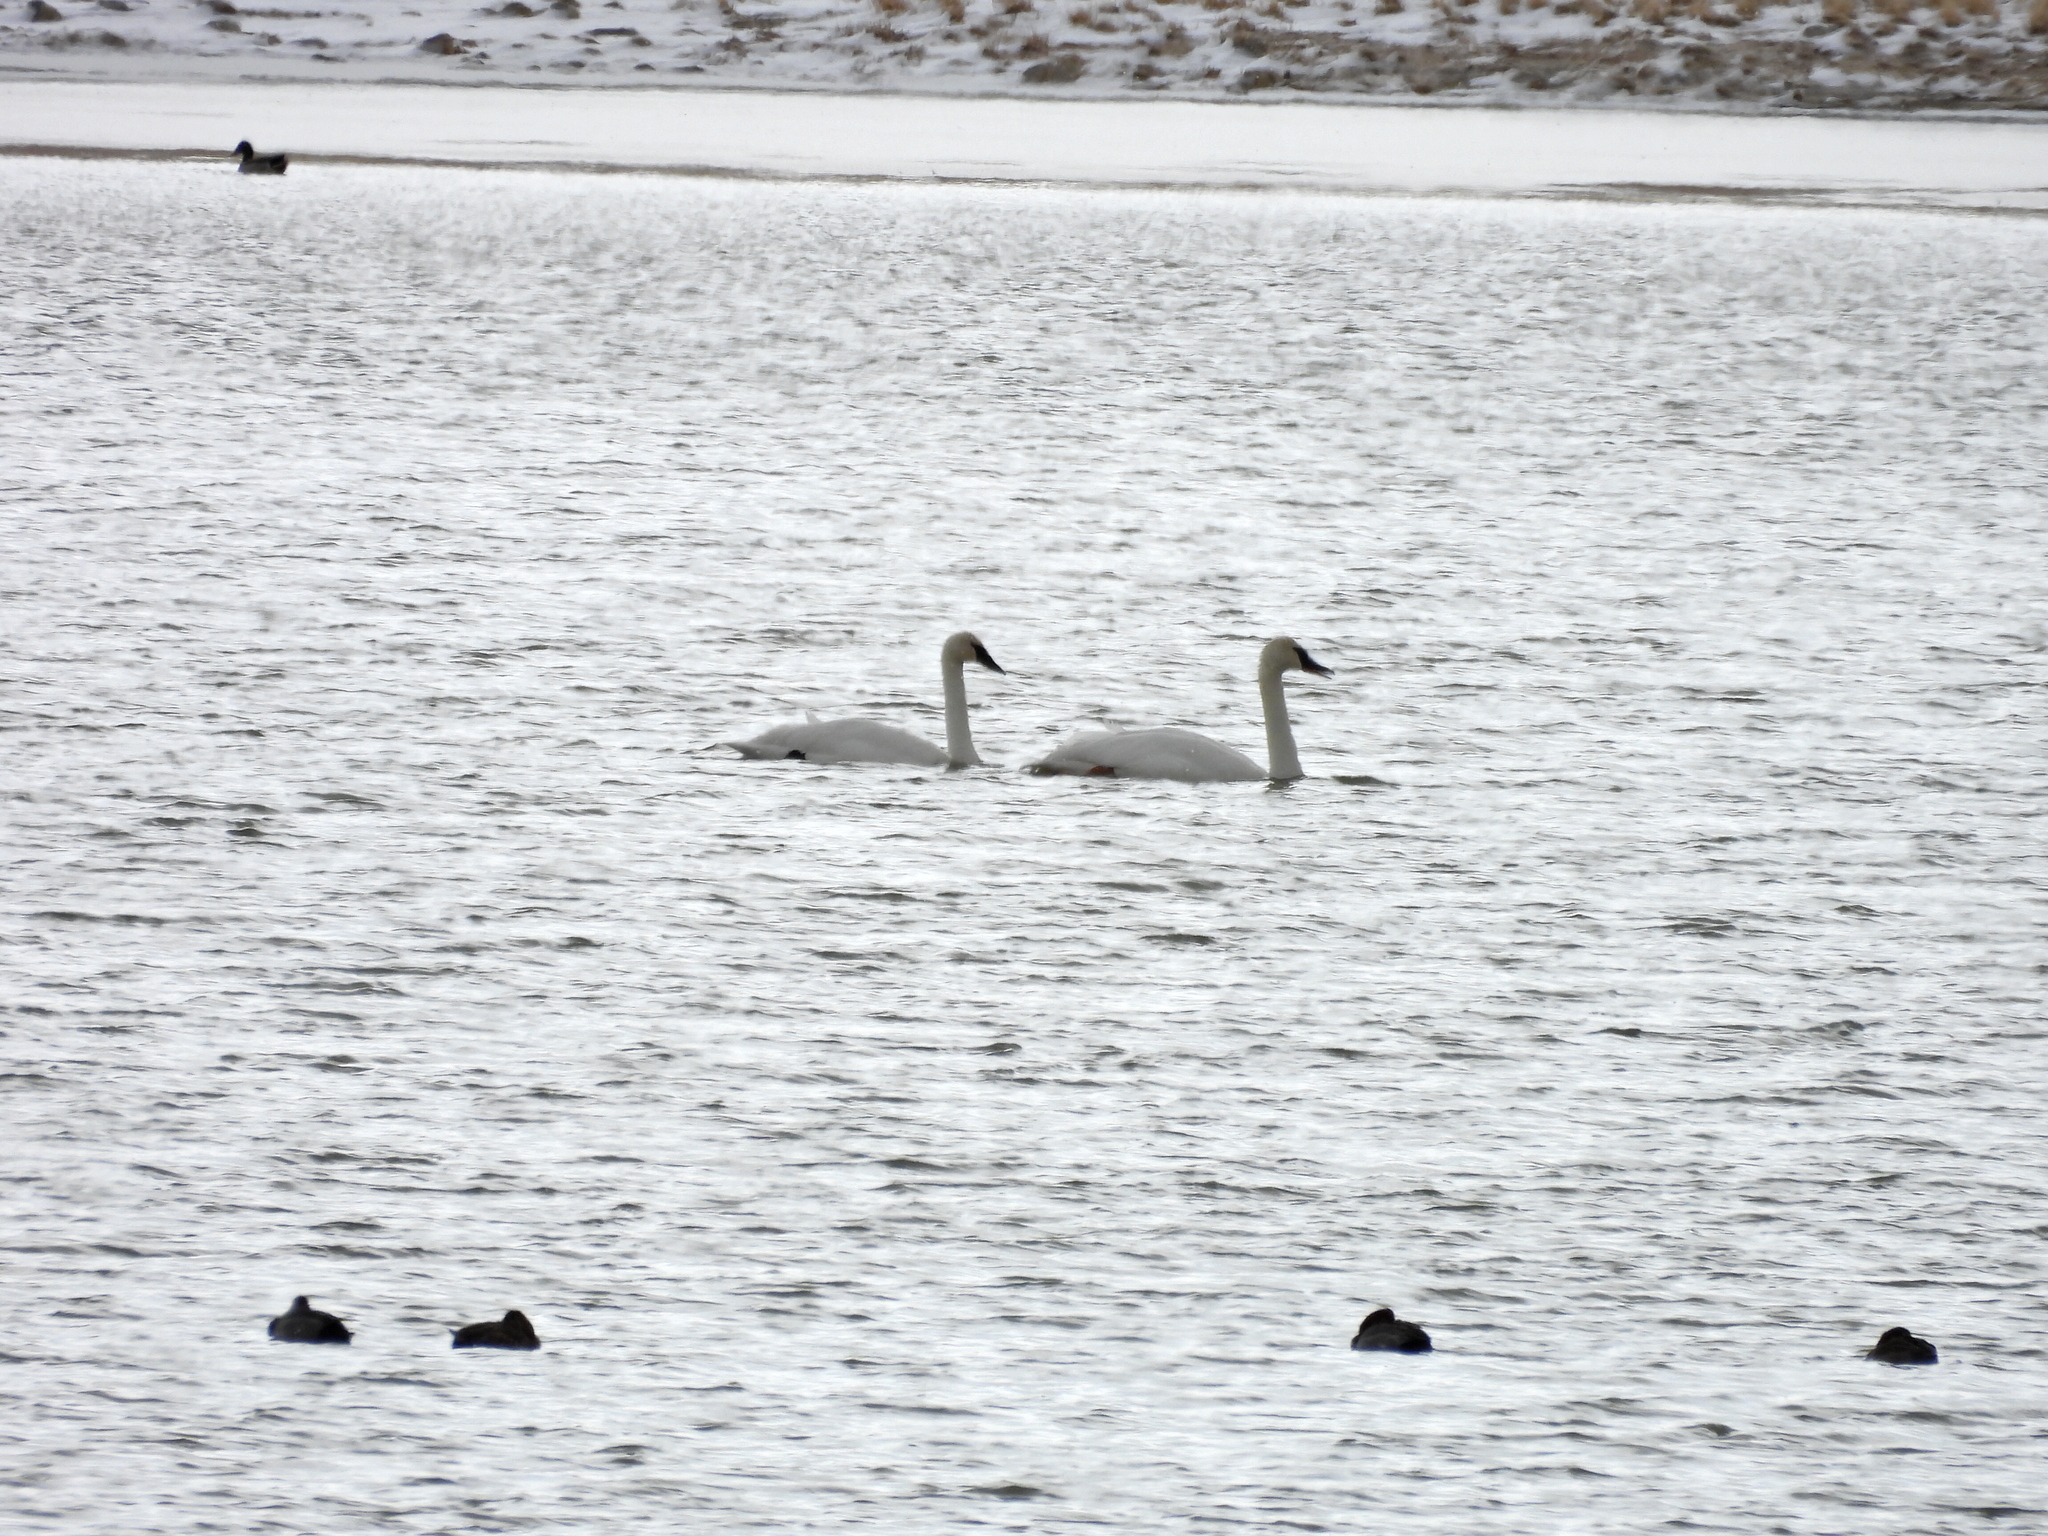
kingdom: Animalia
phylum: Chordata
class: Aves
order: Anseriformes
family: Anatidae
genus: Cygnus
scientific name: Cygnus buccinator
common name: Trumpeter swan
